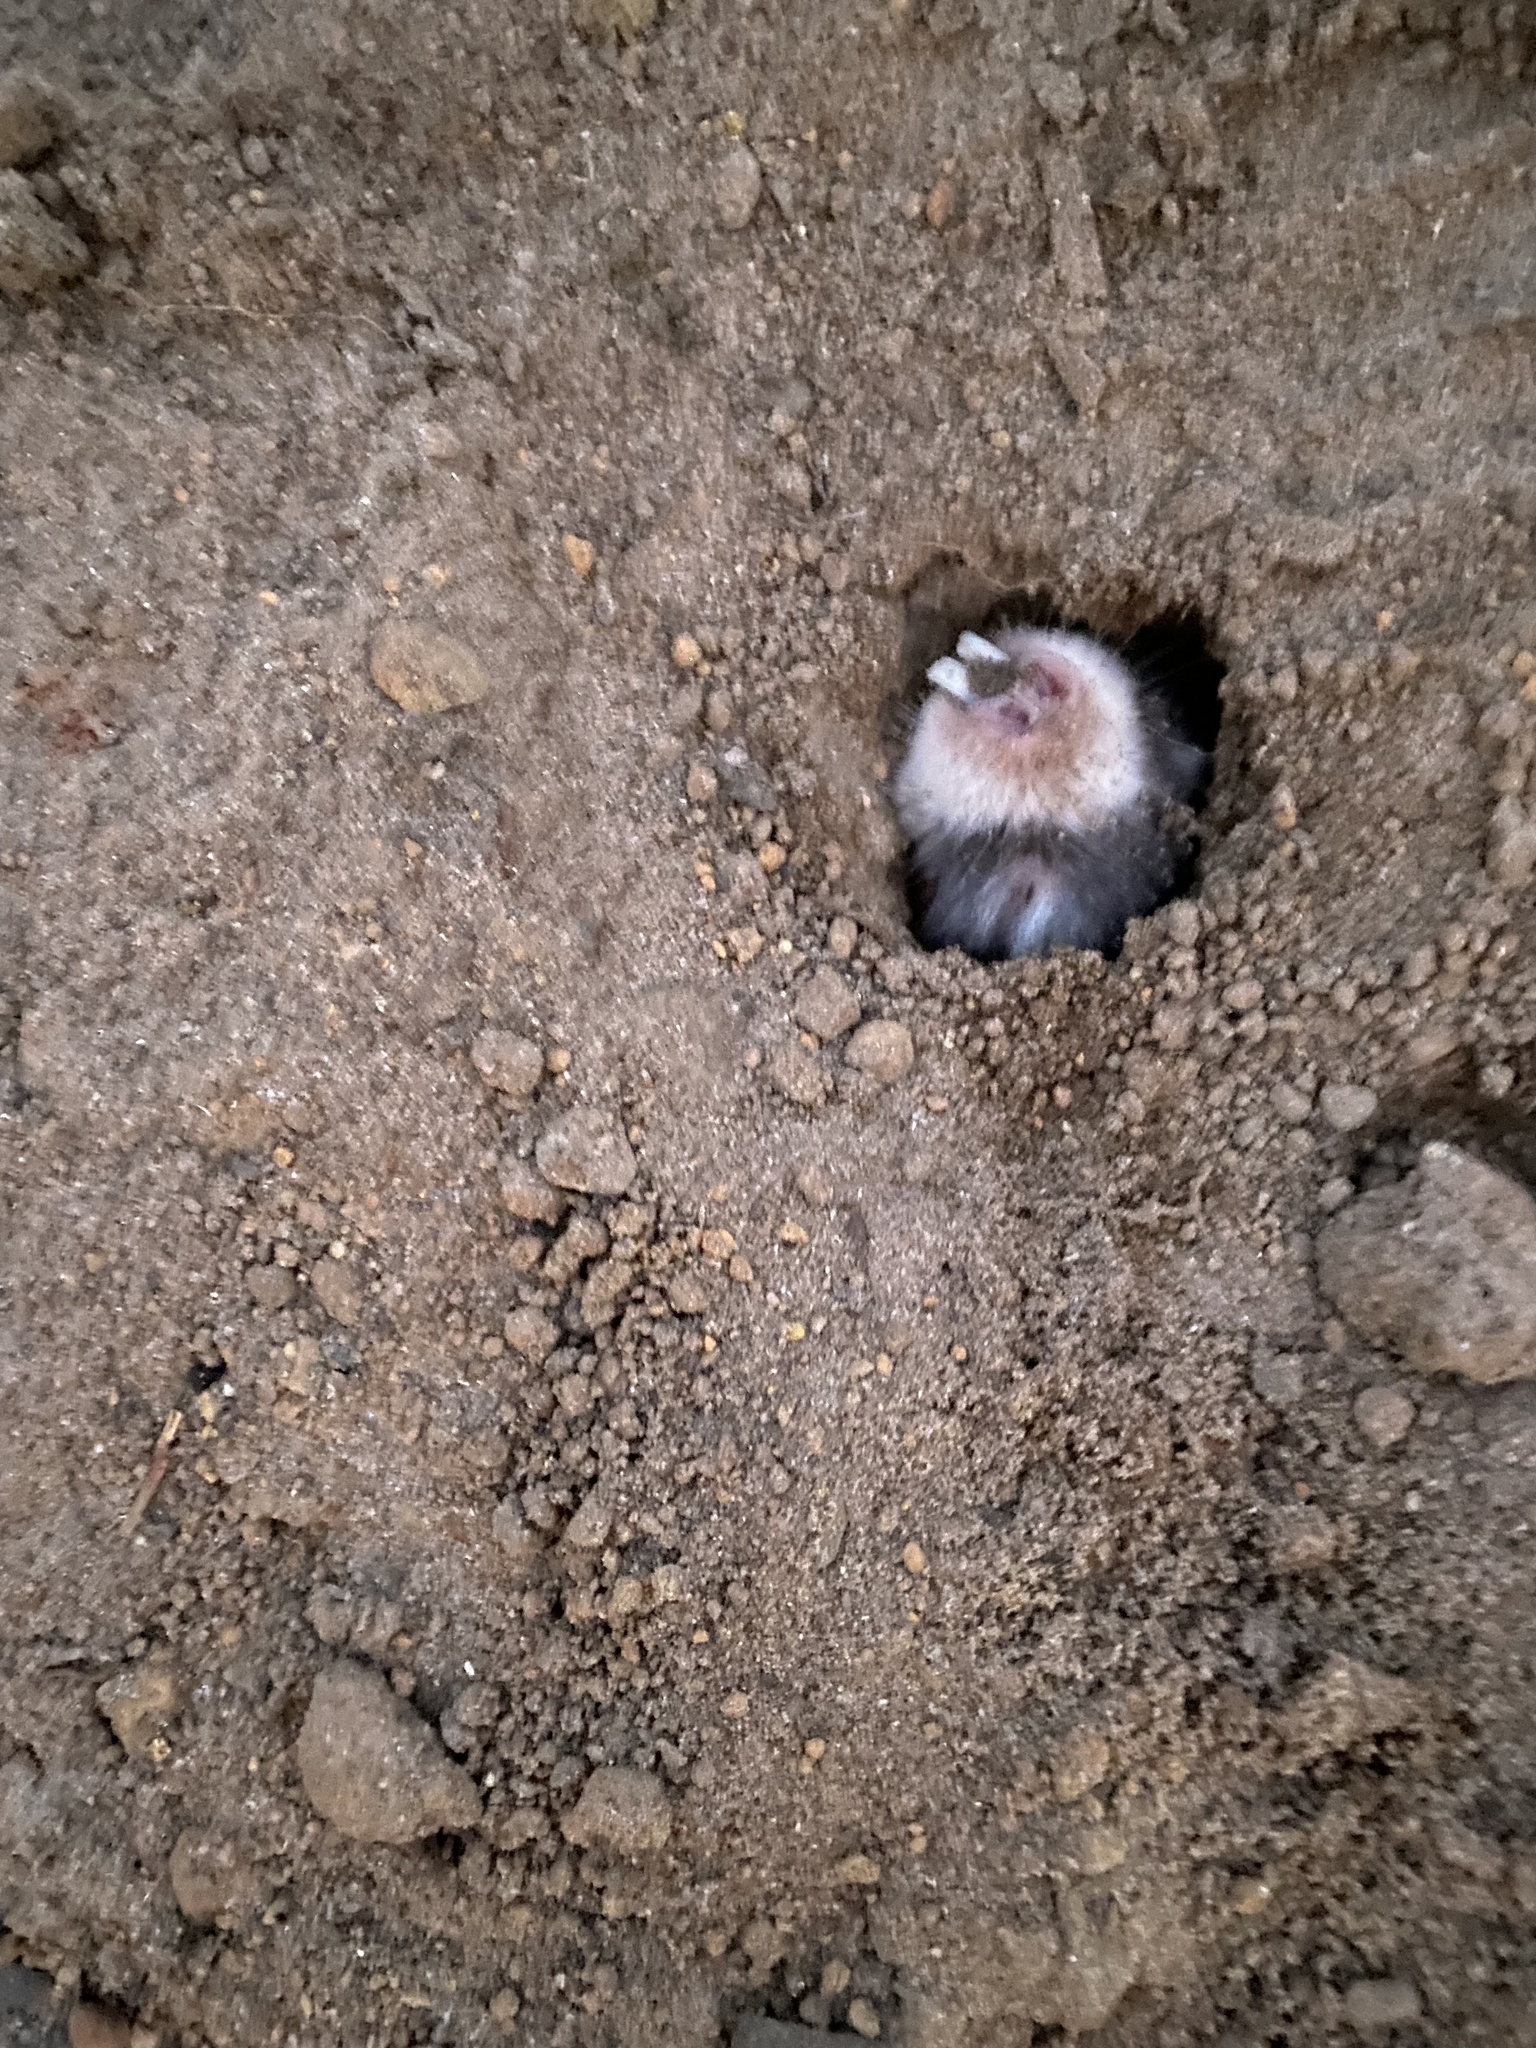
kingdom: Animalia
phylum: Chordata
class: Mammalia
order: Rodentia
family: Bathyergidae
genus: Georychus
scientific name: Georychus capensis
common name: Cape mole-rat
